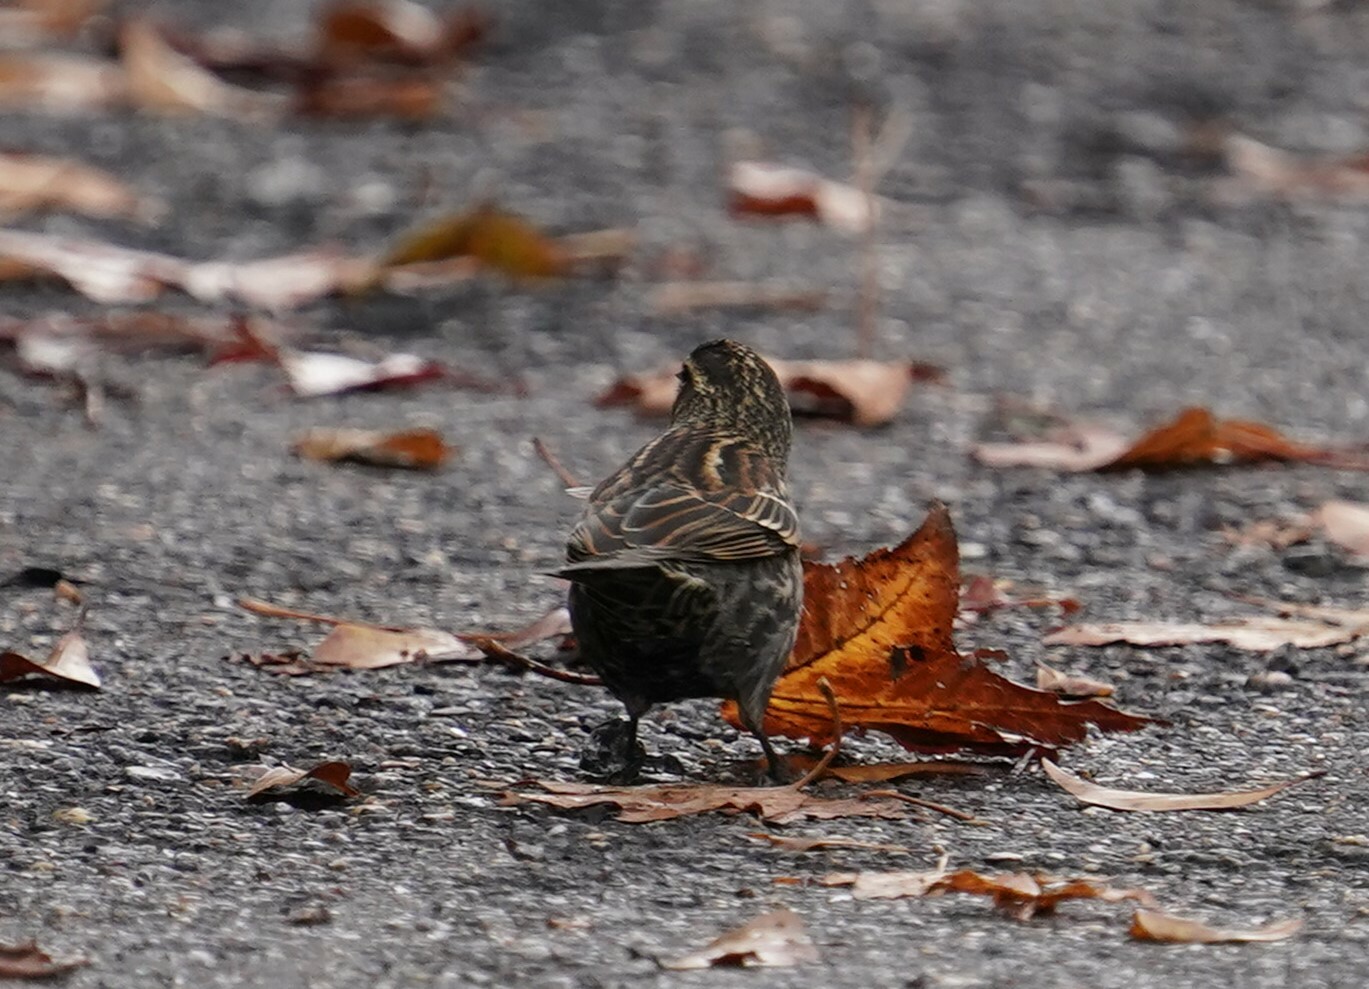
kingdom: Animalia
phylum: Chordata
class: Aves
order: Passeriformes
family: Icteridae
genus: Agelaius
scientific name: Agelaius phoeniceus
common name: Red-winged blackbird
